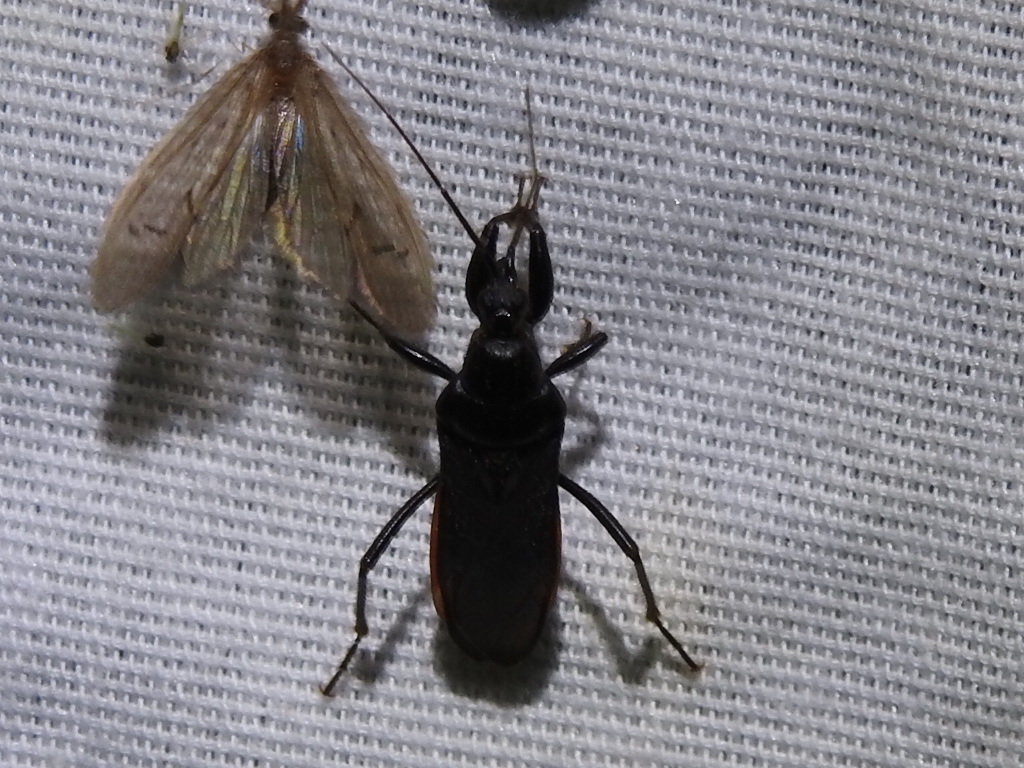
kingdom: Animalia
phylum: Arthropoda
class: Insecta
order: Hemiptera
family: Reduviidae
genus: Melanolestes
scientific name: Melanolestes picipes
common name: Assassin bug
